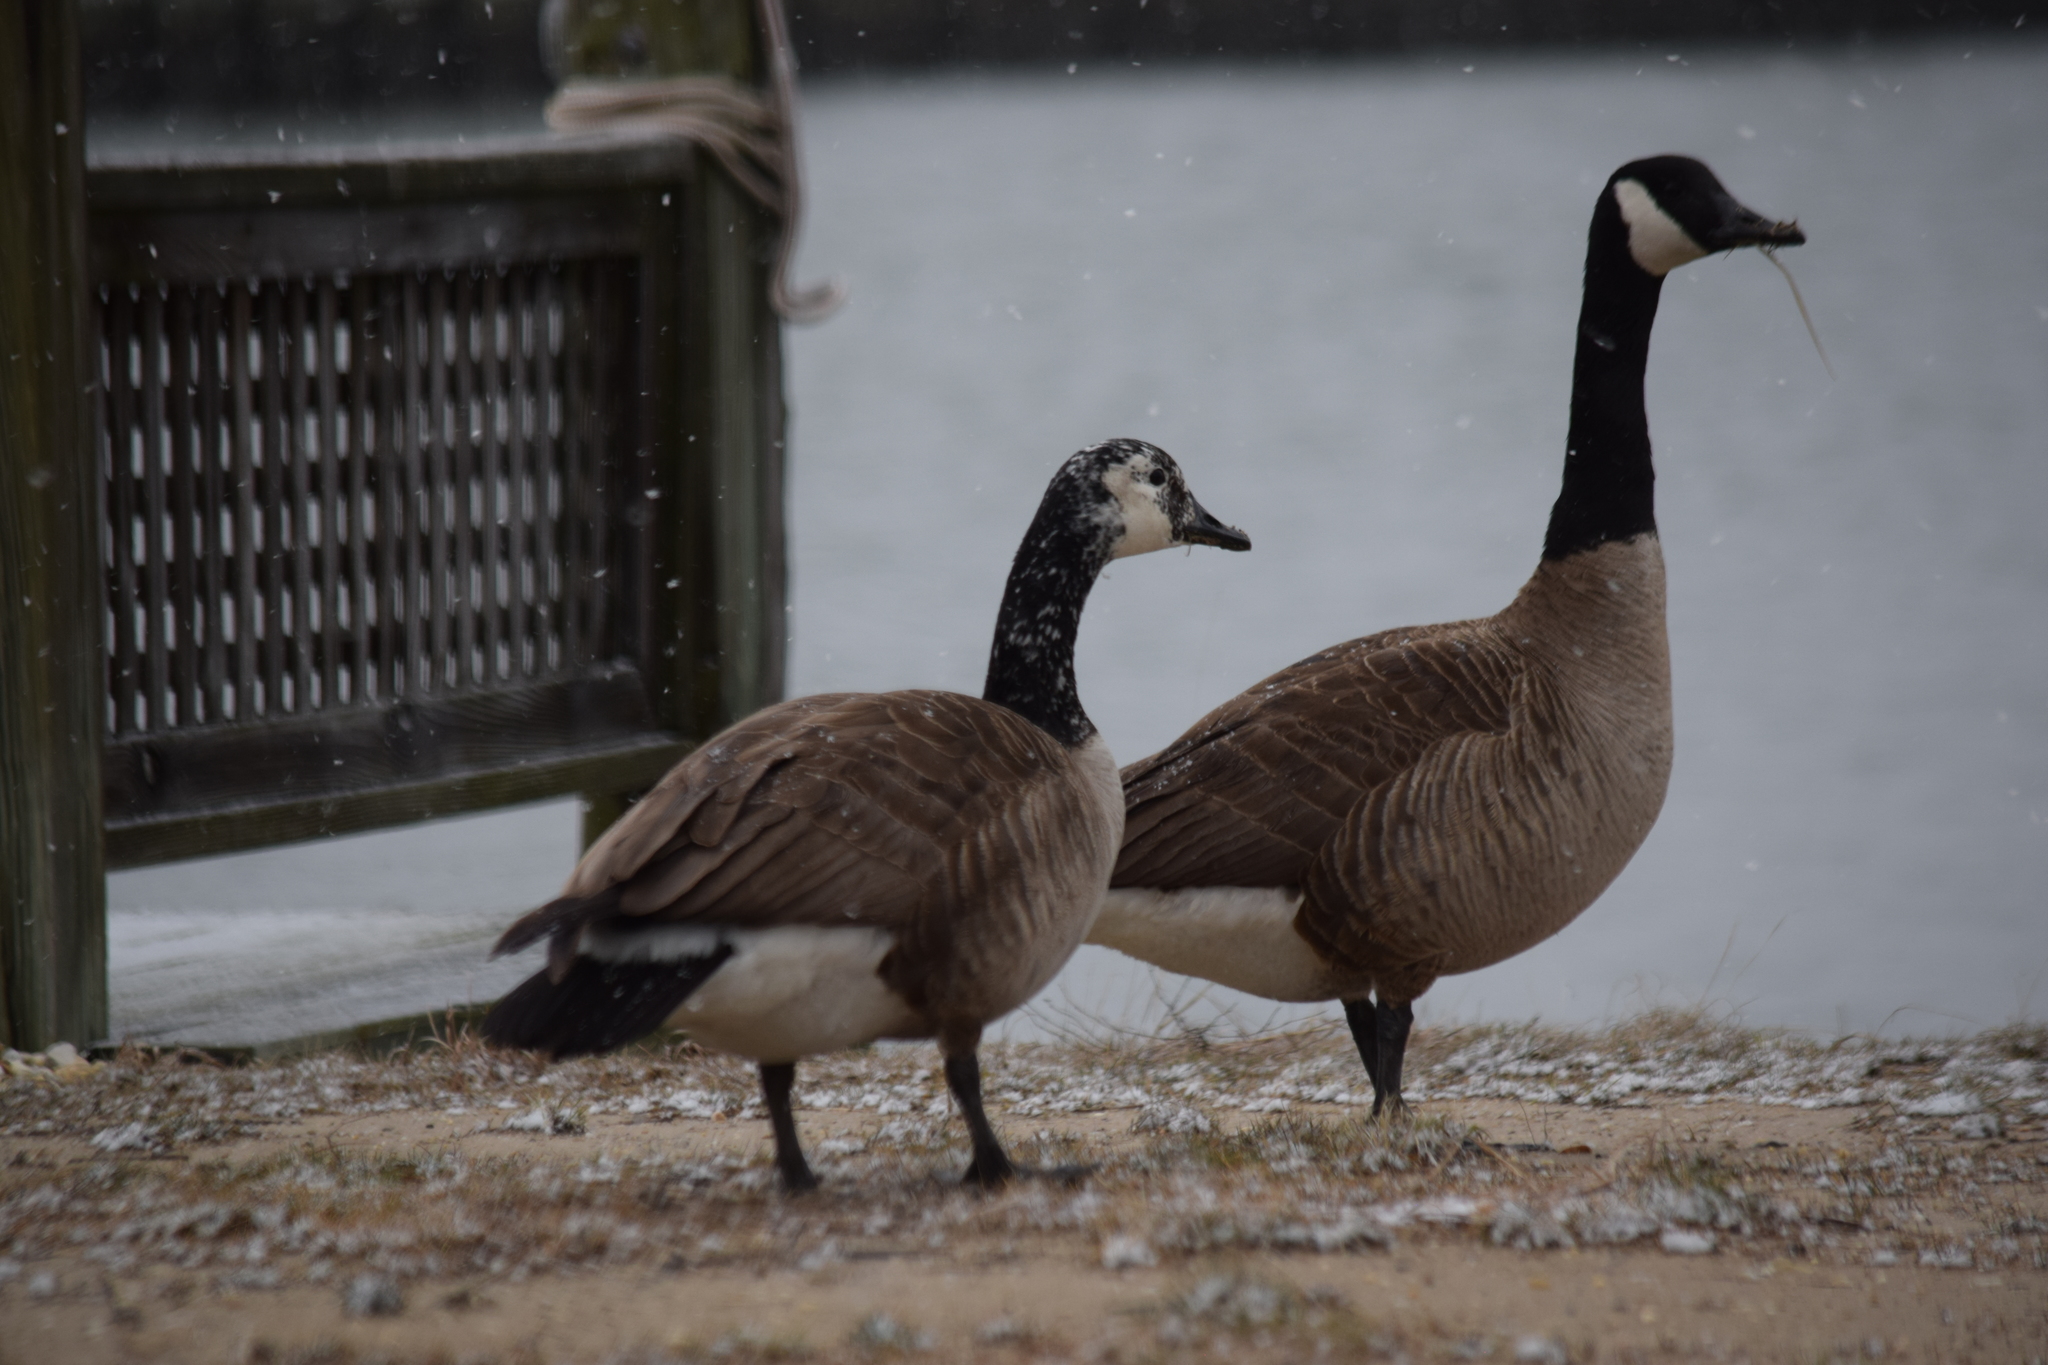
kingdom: Animalia
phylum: Chordata
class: Aves
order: Anseriformes
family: Anatidae
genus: Branta
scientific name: Branta canadensis
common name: Canada goose
